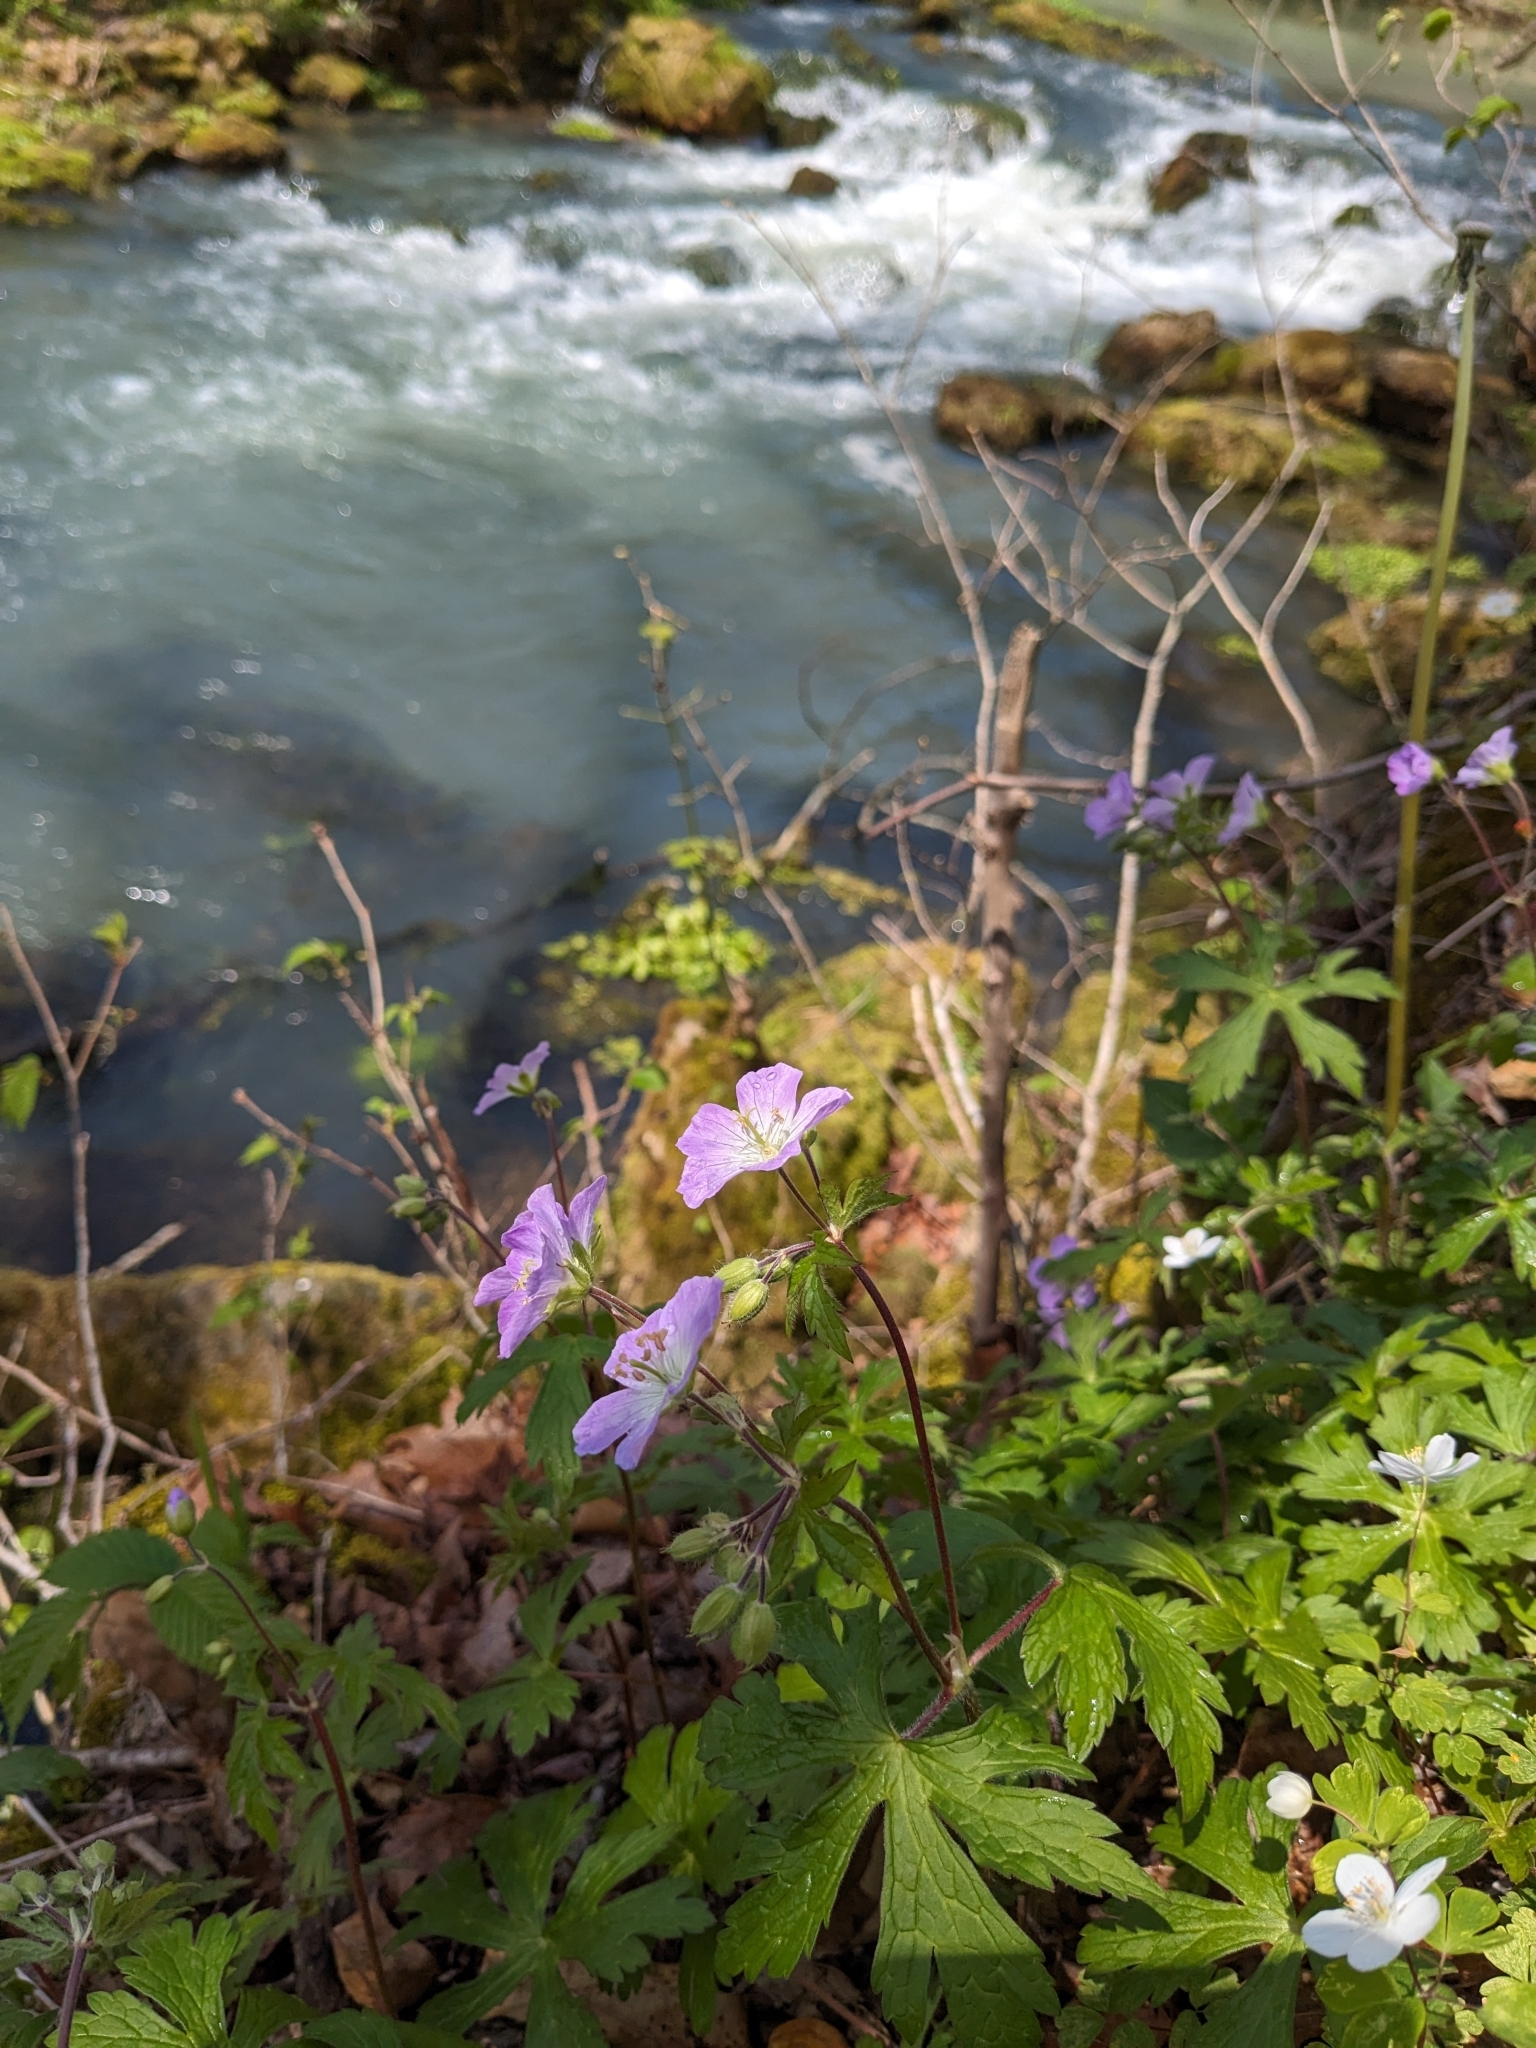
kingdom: Plantae
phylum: Tracheophyta
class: Magnoliopsida
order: Geraniales
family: Geraniaceae
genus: Geranium
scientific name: Geranium maculatum
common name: Spotted geranium
